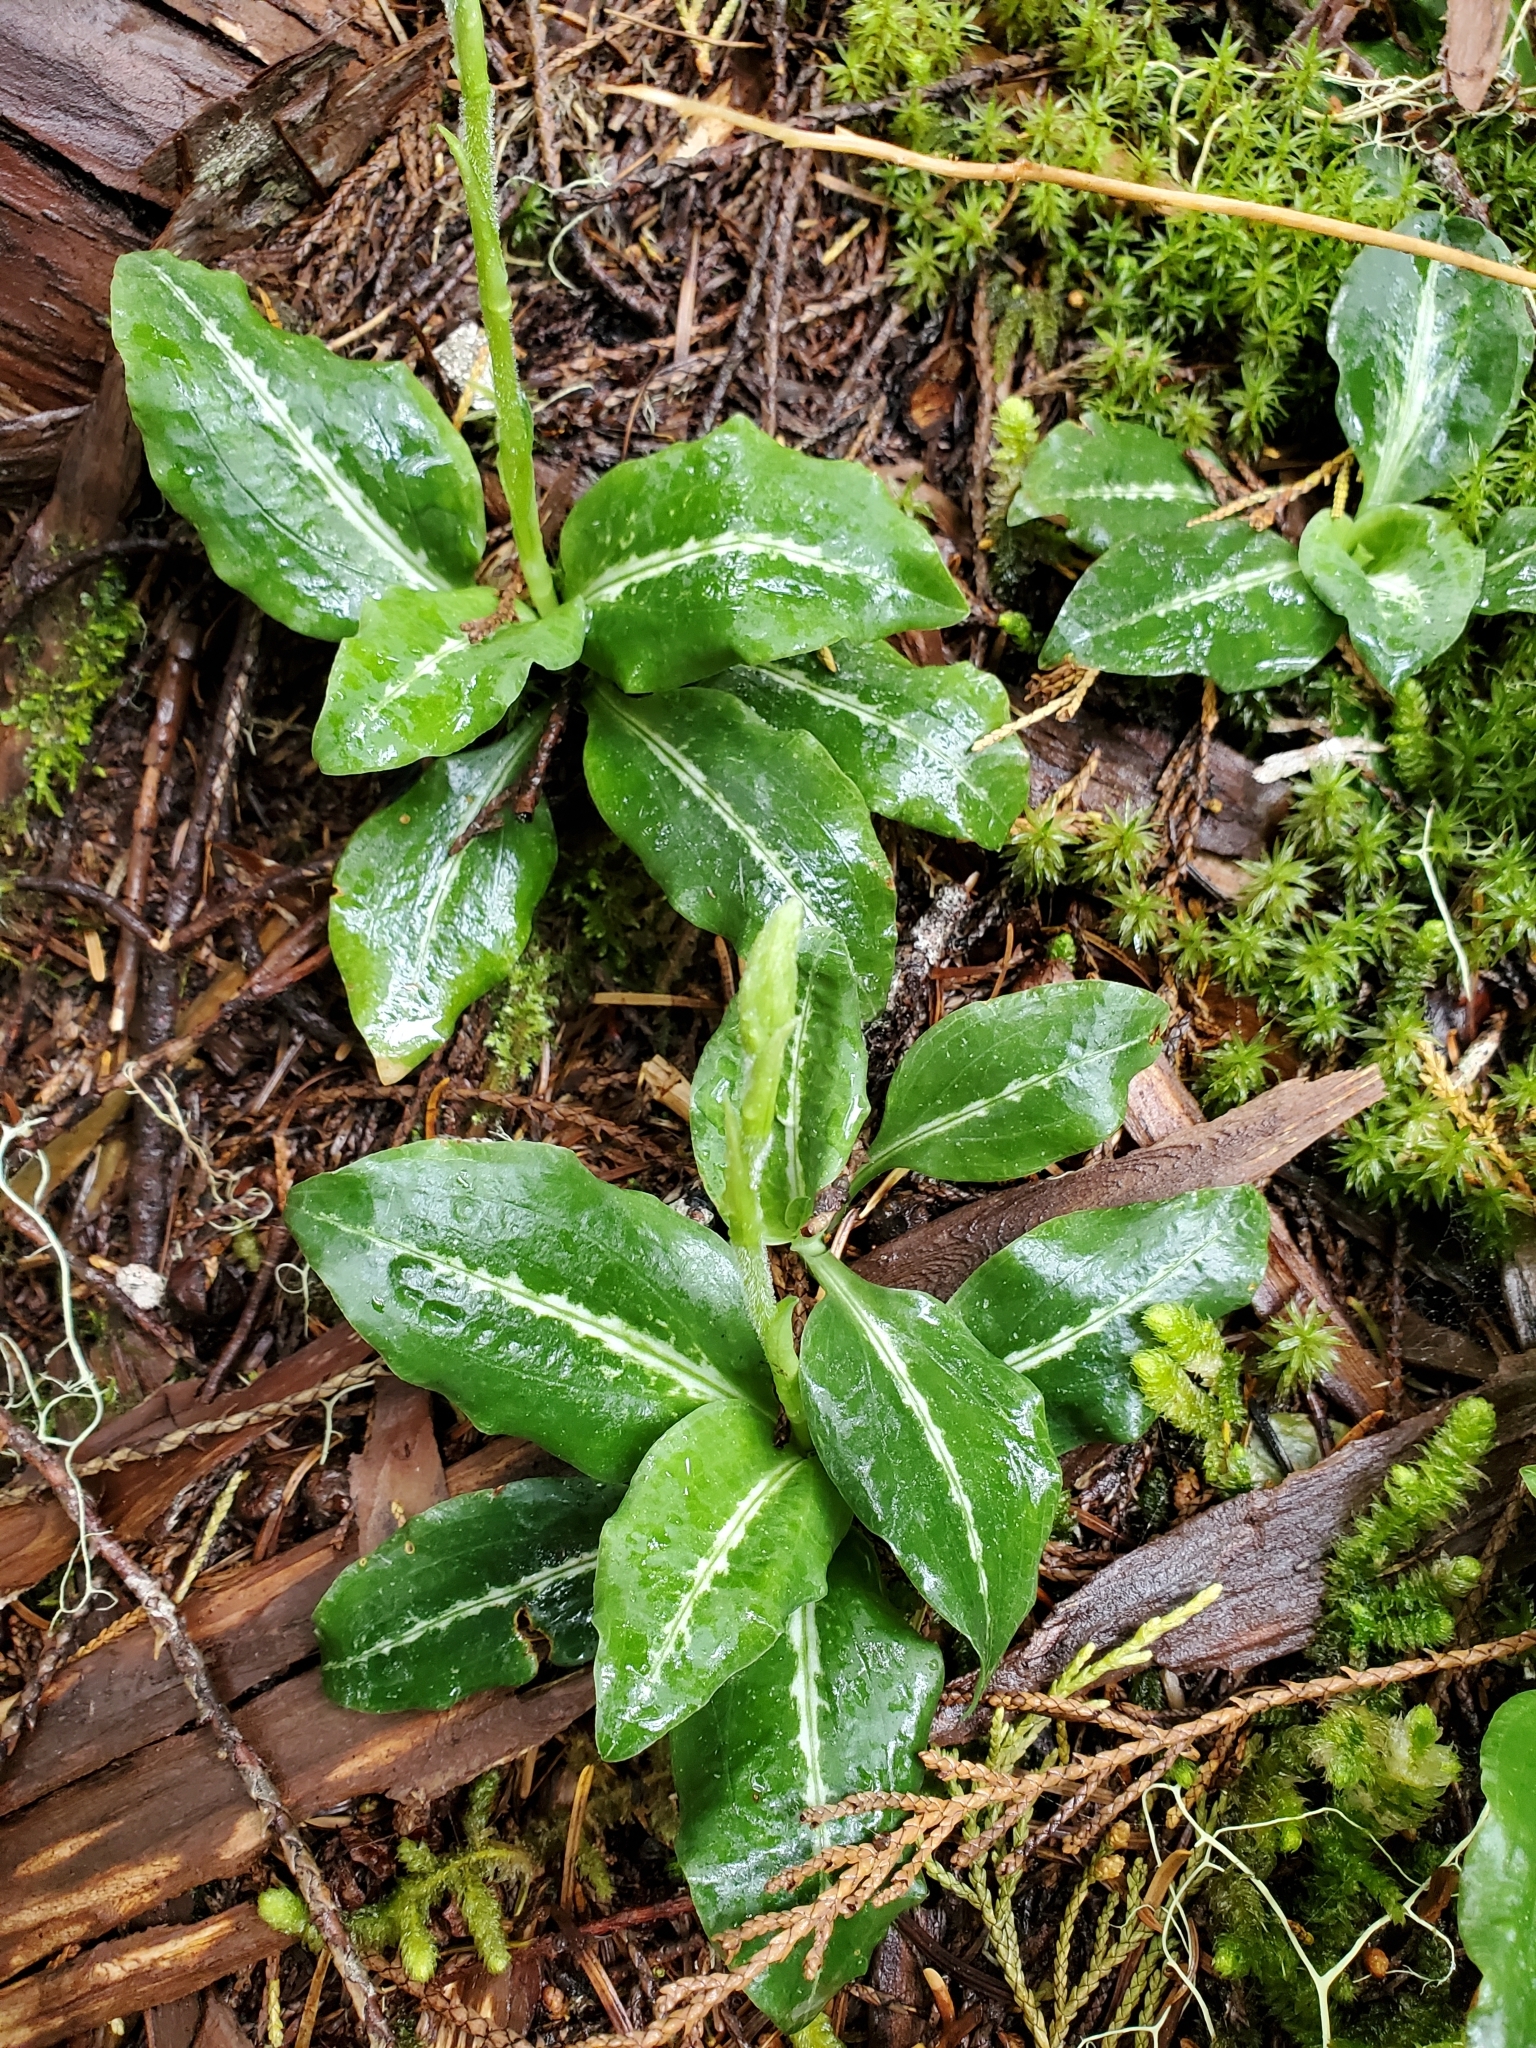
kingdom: Plantae
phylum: Tracheophyta
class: Liliopsida
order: Asparagales
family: Orchidaceae
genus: Goodyera
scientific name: Goodyera oblongifolia
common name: Giant rattlesnake-plantain
